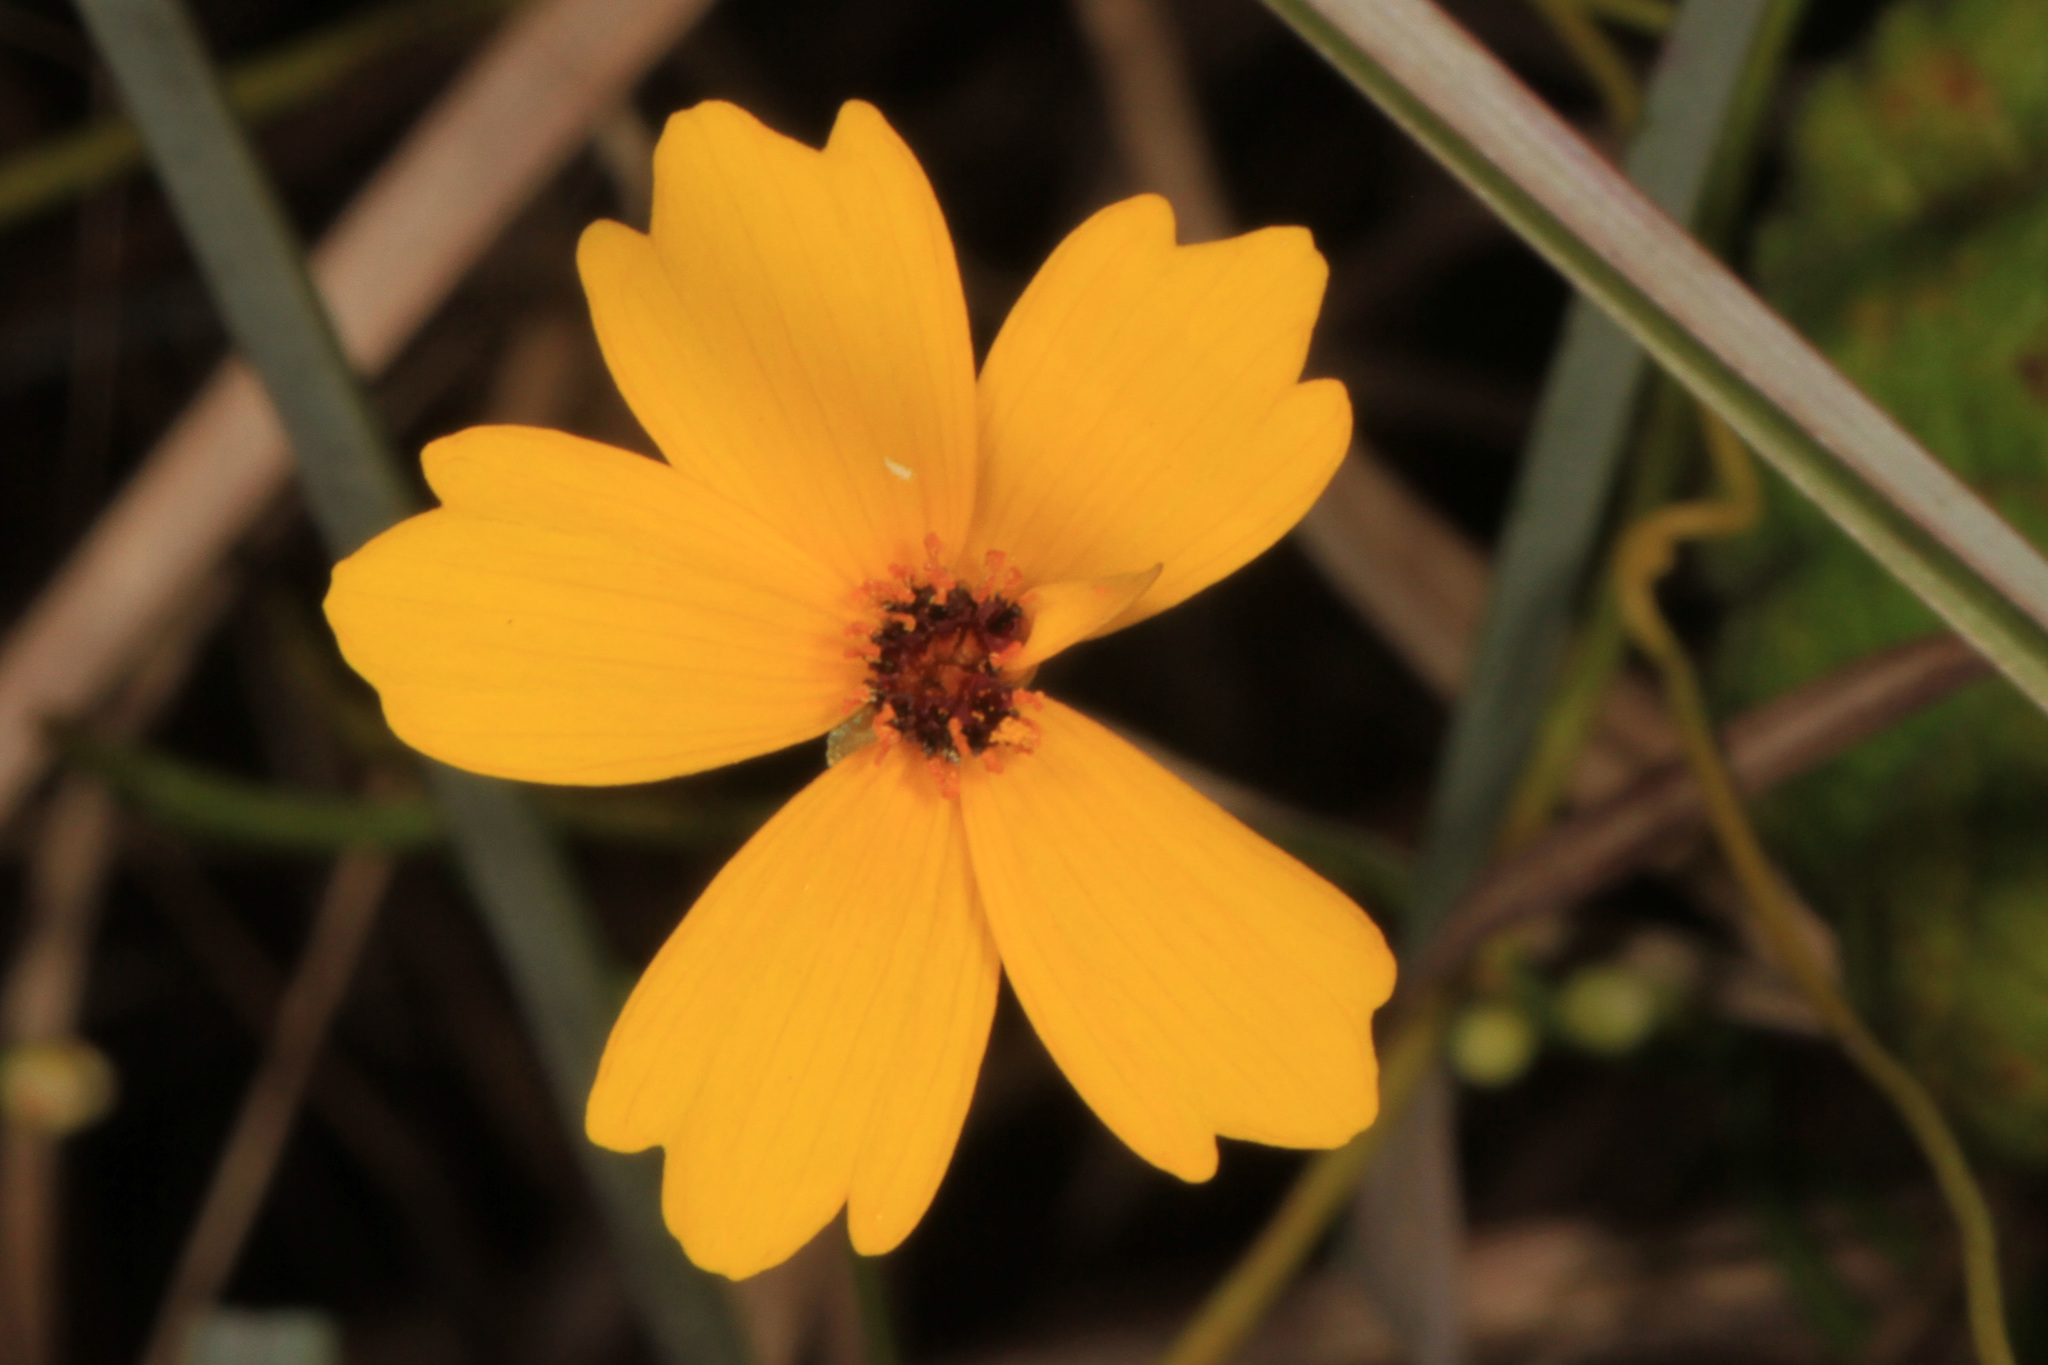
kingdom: Plantae
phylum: Tracheophyta
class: Magnoliopsida
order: Asterales
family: Asteraceae
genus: Coreopsis
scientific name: Coreopsis leavenworthii
